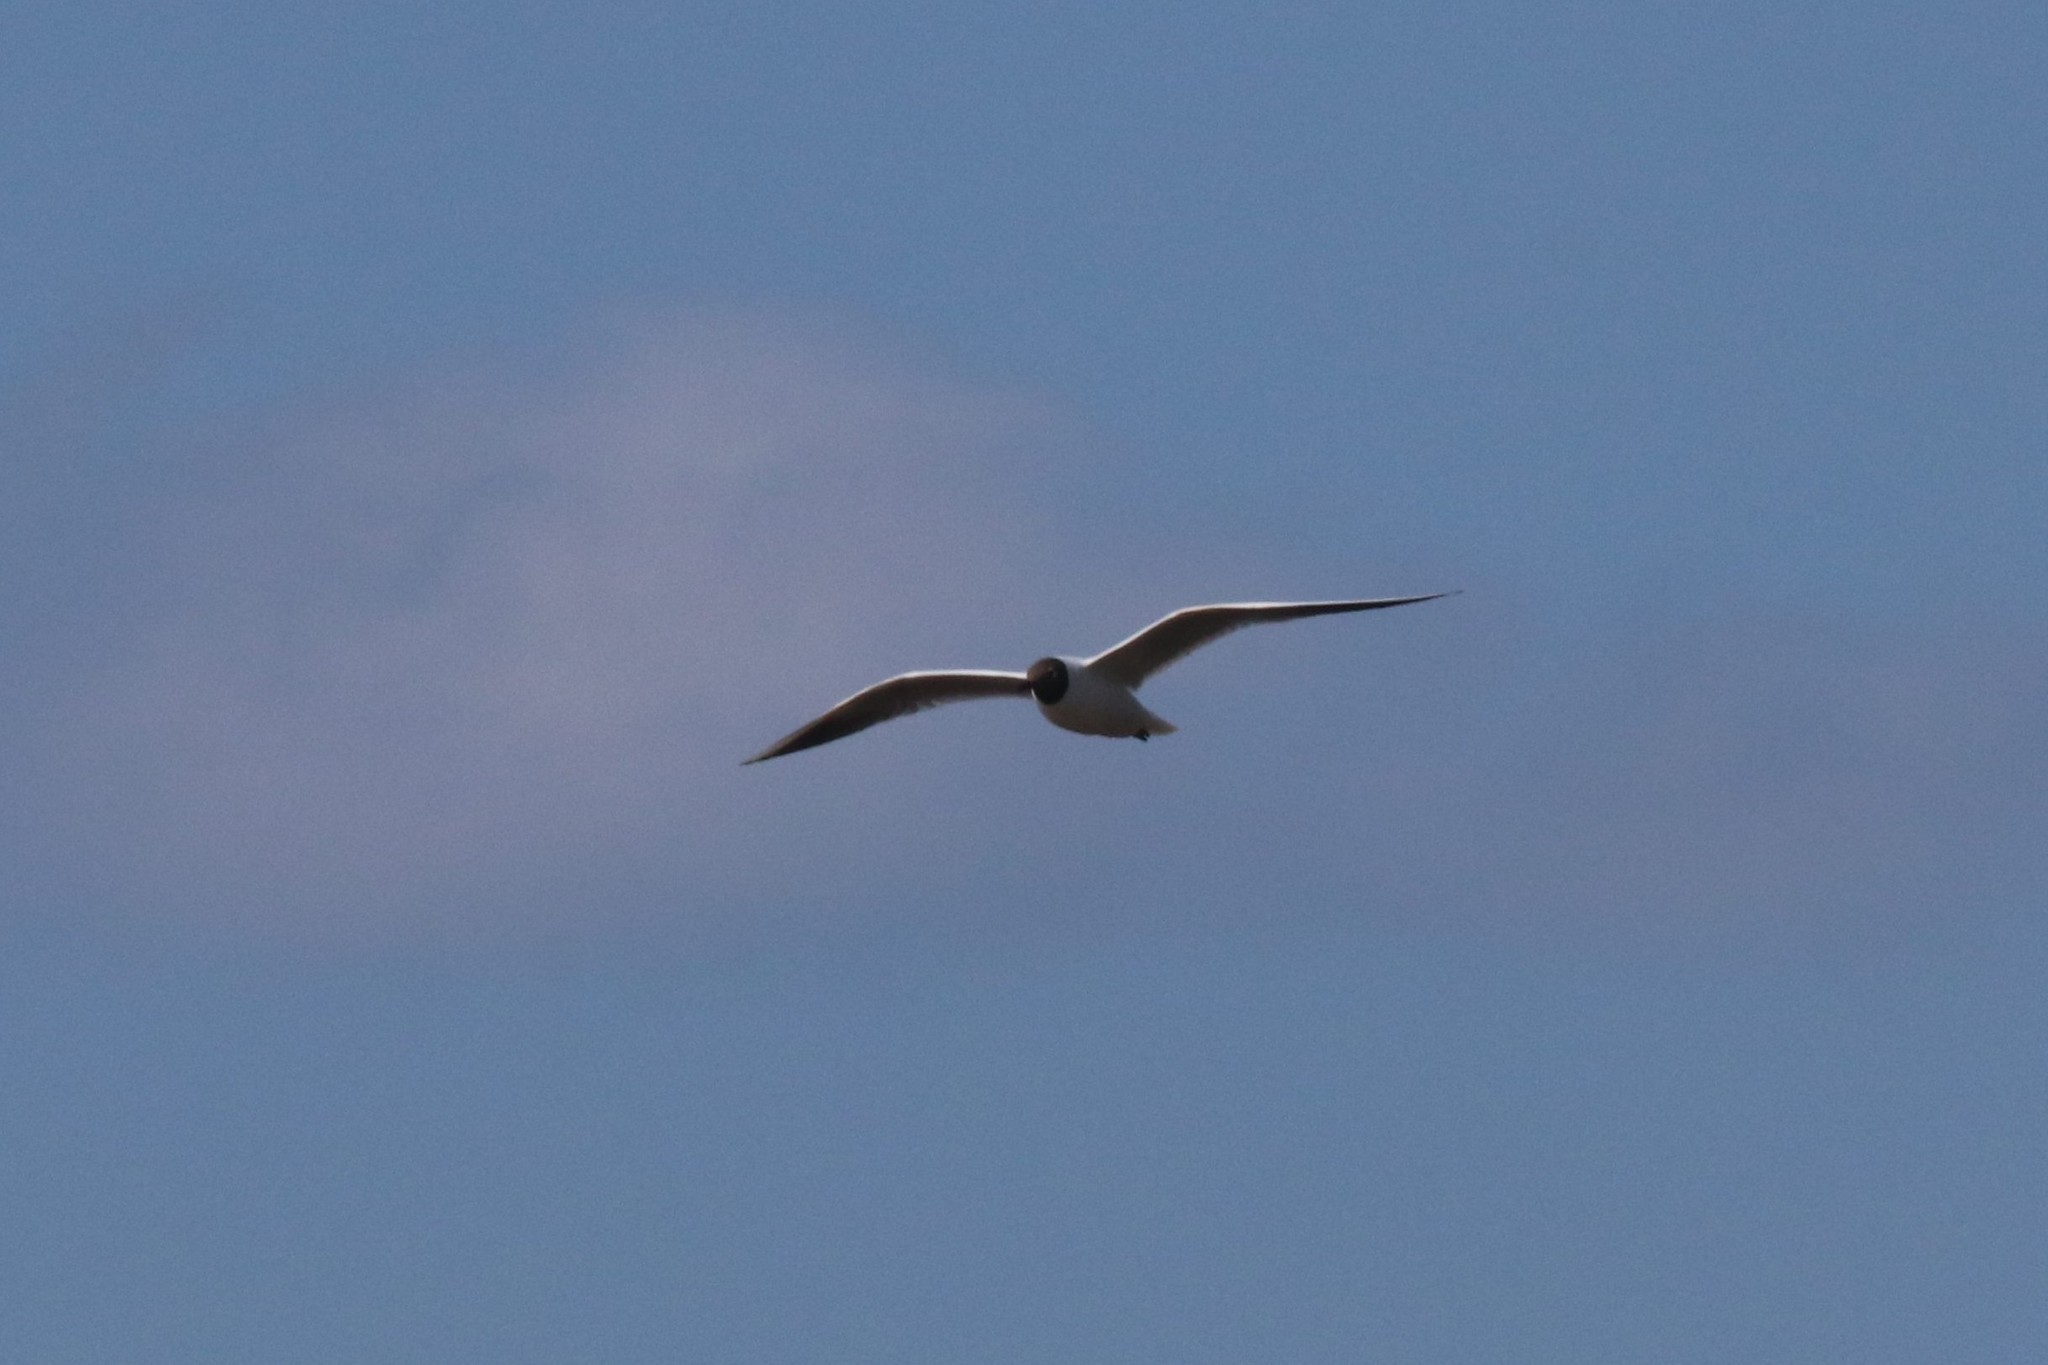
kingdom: Animalia
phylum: Chordata
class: Aves
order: Charadriiformes
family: Laridae
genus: Chroicocephalus
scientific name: Chroicocephalus ridibundus
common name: Black-headed gull
